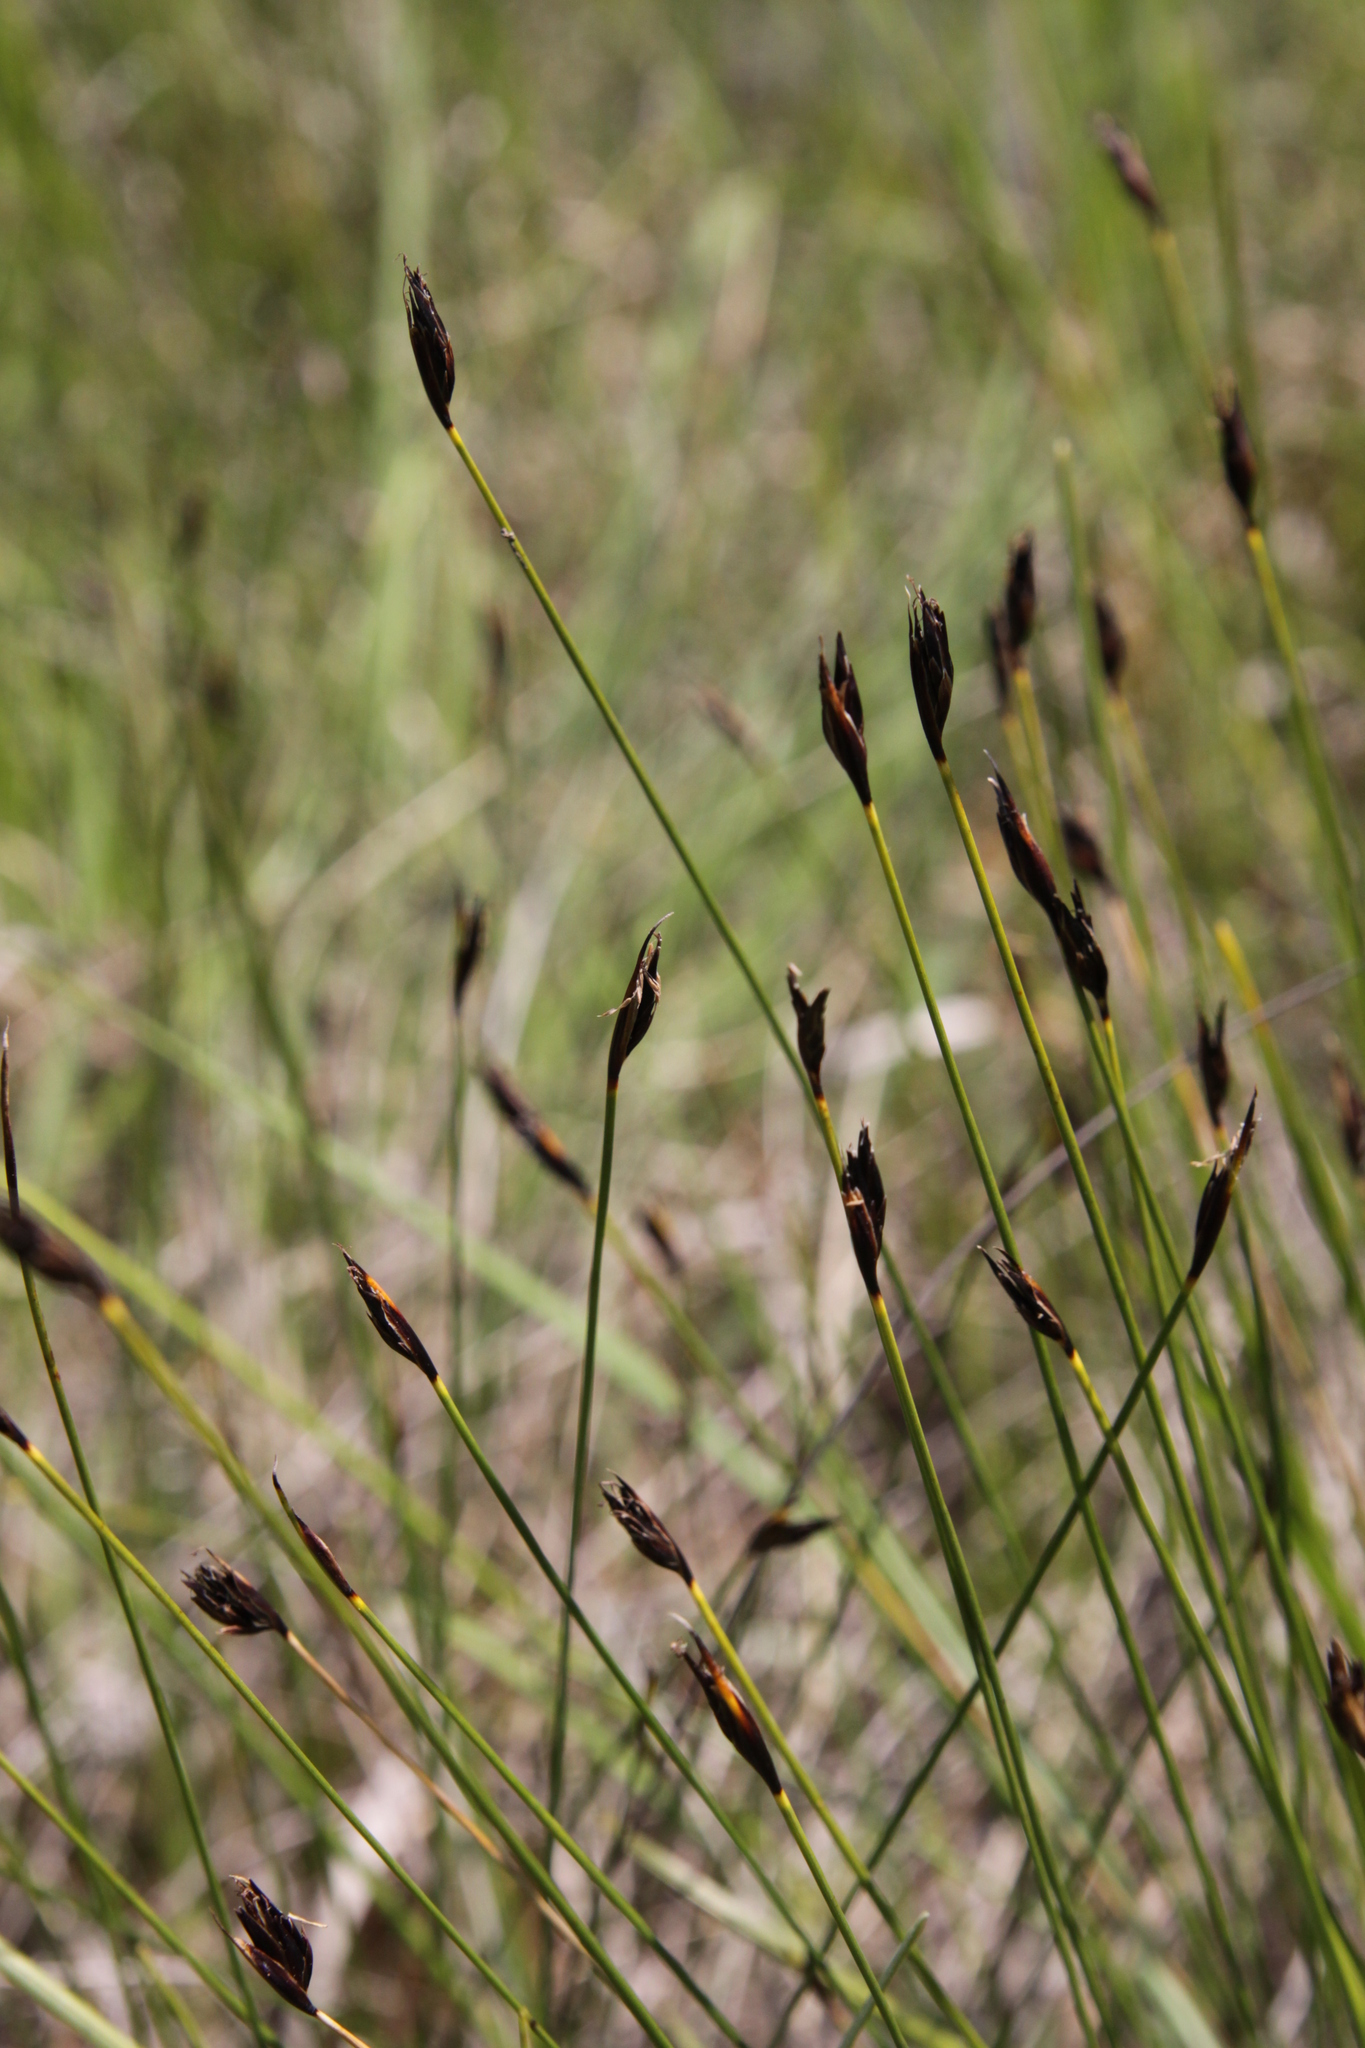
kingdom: Plantae
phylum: Tracheophyta
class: Liliopsida
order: Poales
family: Cyperaceae
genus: Schoenus
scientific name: Schoenus ferrugineus
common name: Brown bog-rush
